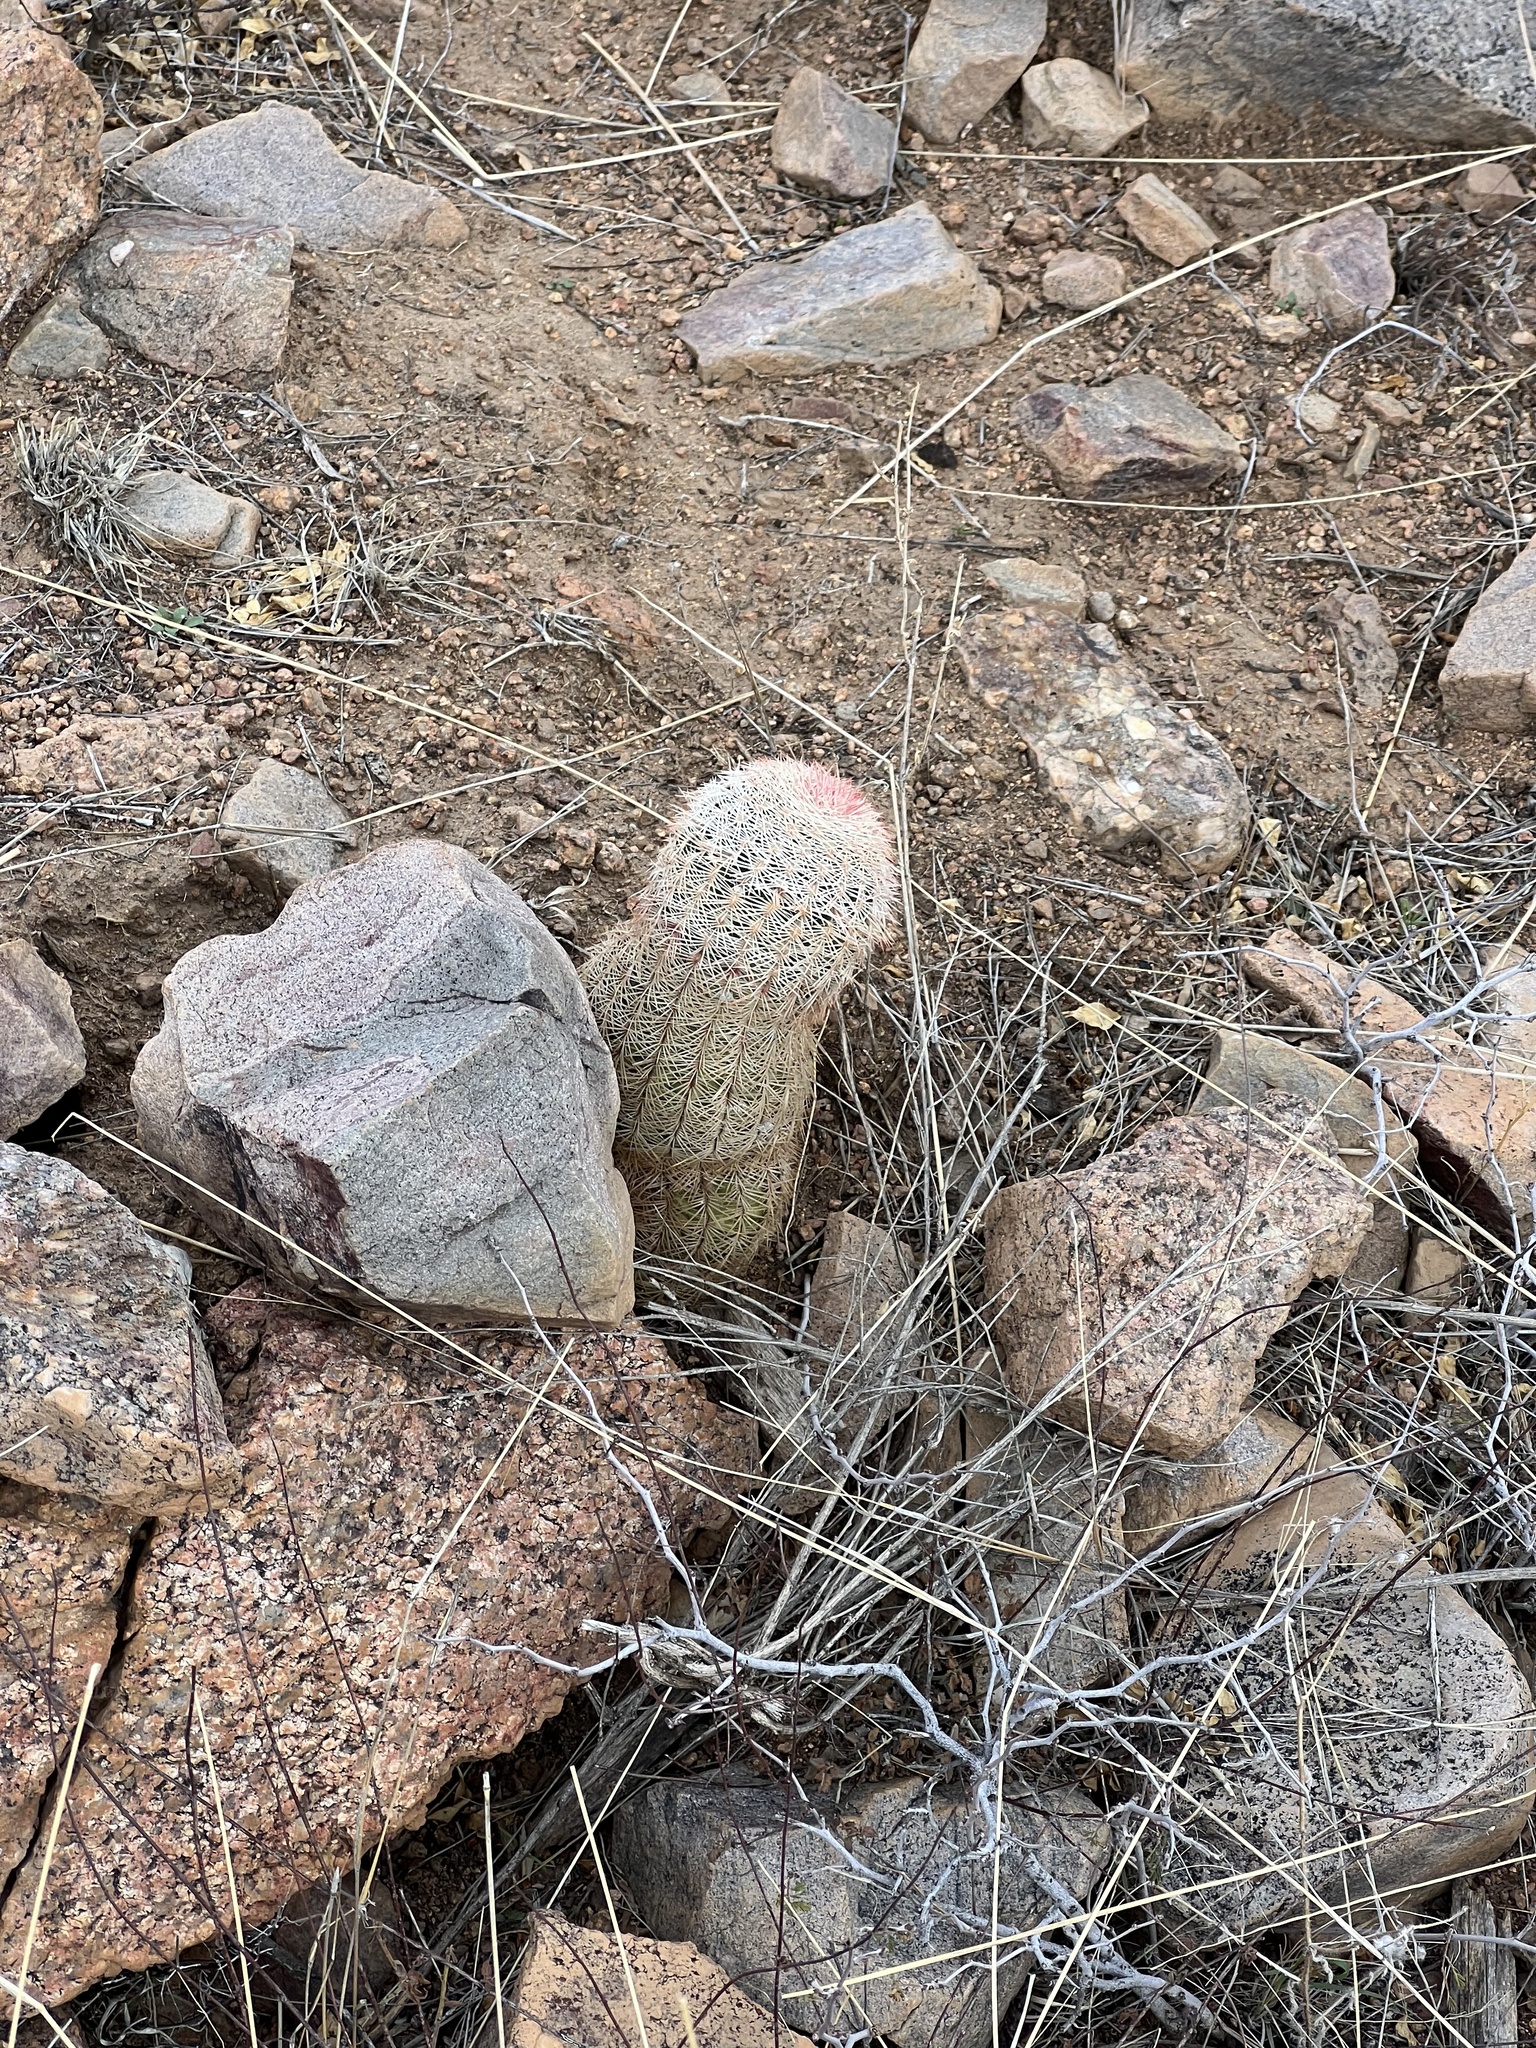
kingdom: Plantae
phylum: Tracheophyta
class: Magnoliopsida
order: Caryophyllales
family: Cactaceae
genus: Echinocereus
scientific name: Echinocereus rigidissimus
